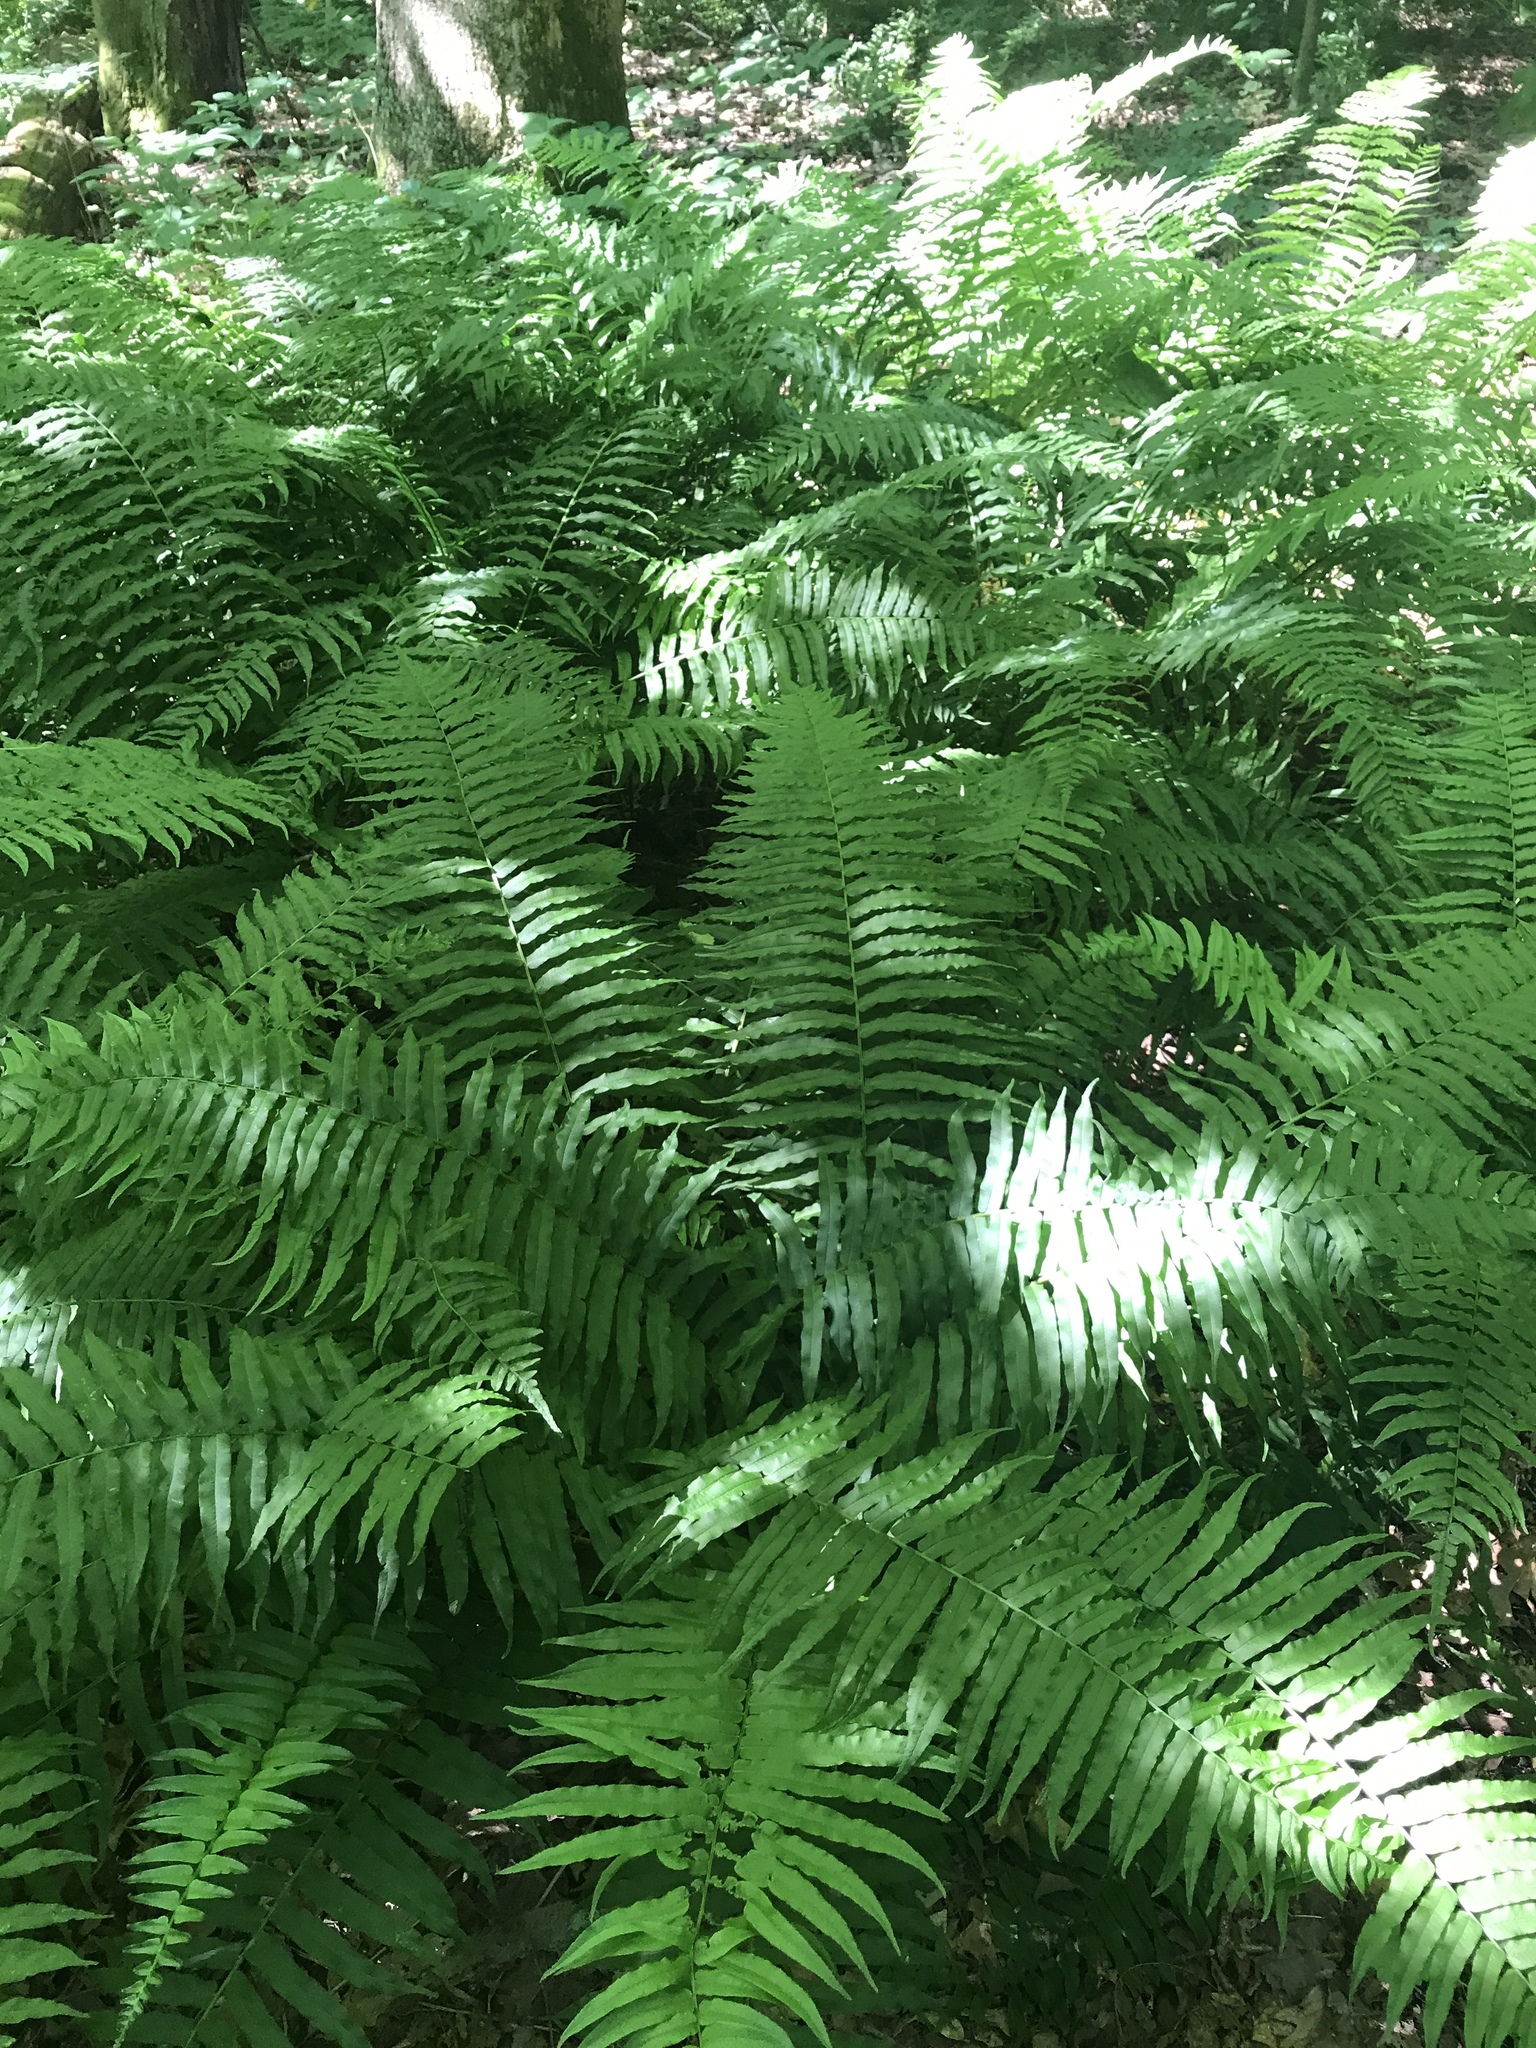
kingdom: Plantae
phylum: Tracheophyta
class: Polypodiopsida
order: Polypodiales
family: Diplaziopsidaceae
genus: Homalosorus
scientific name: Homalosorus pycnocarpos
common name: Glade fern
